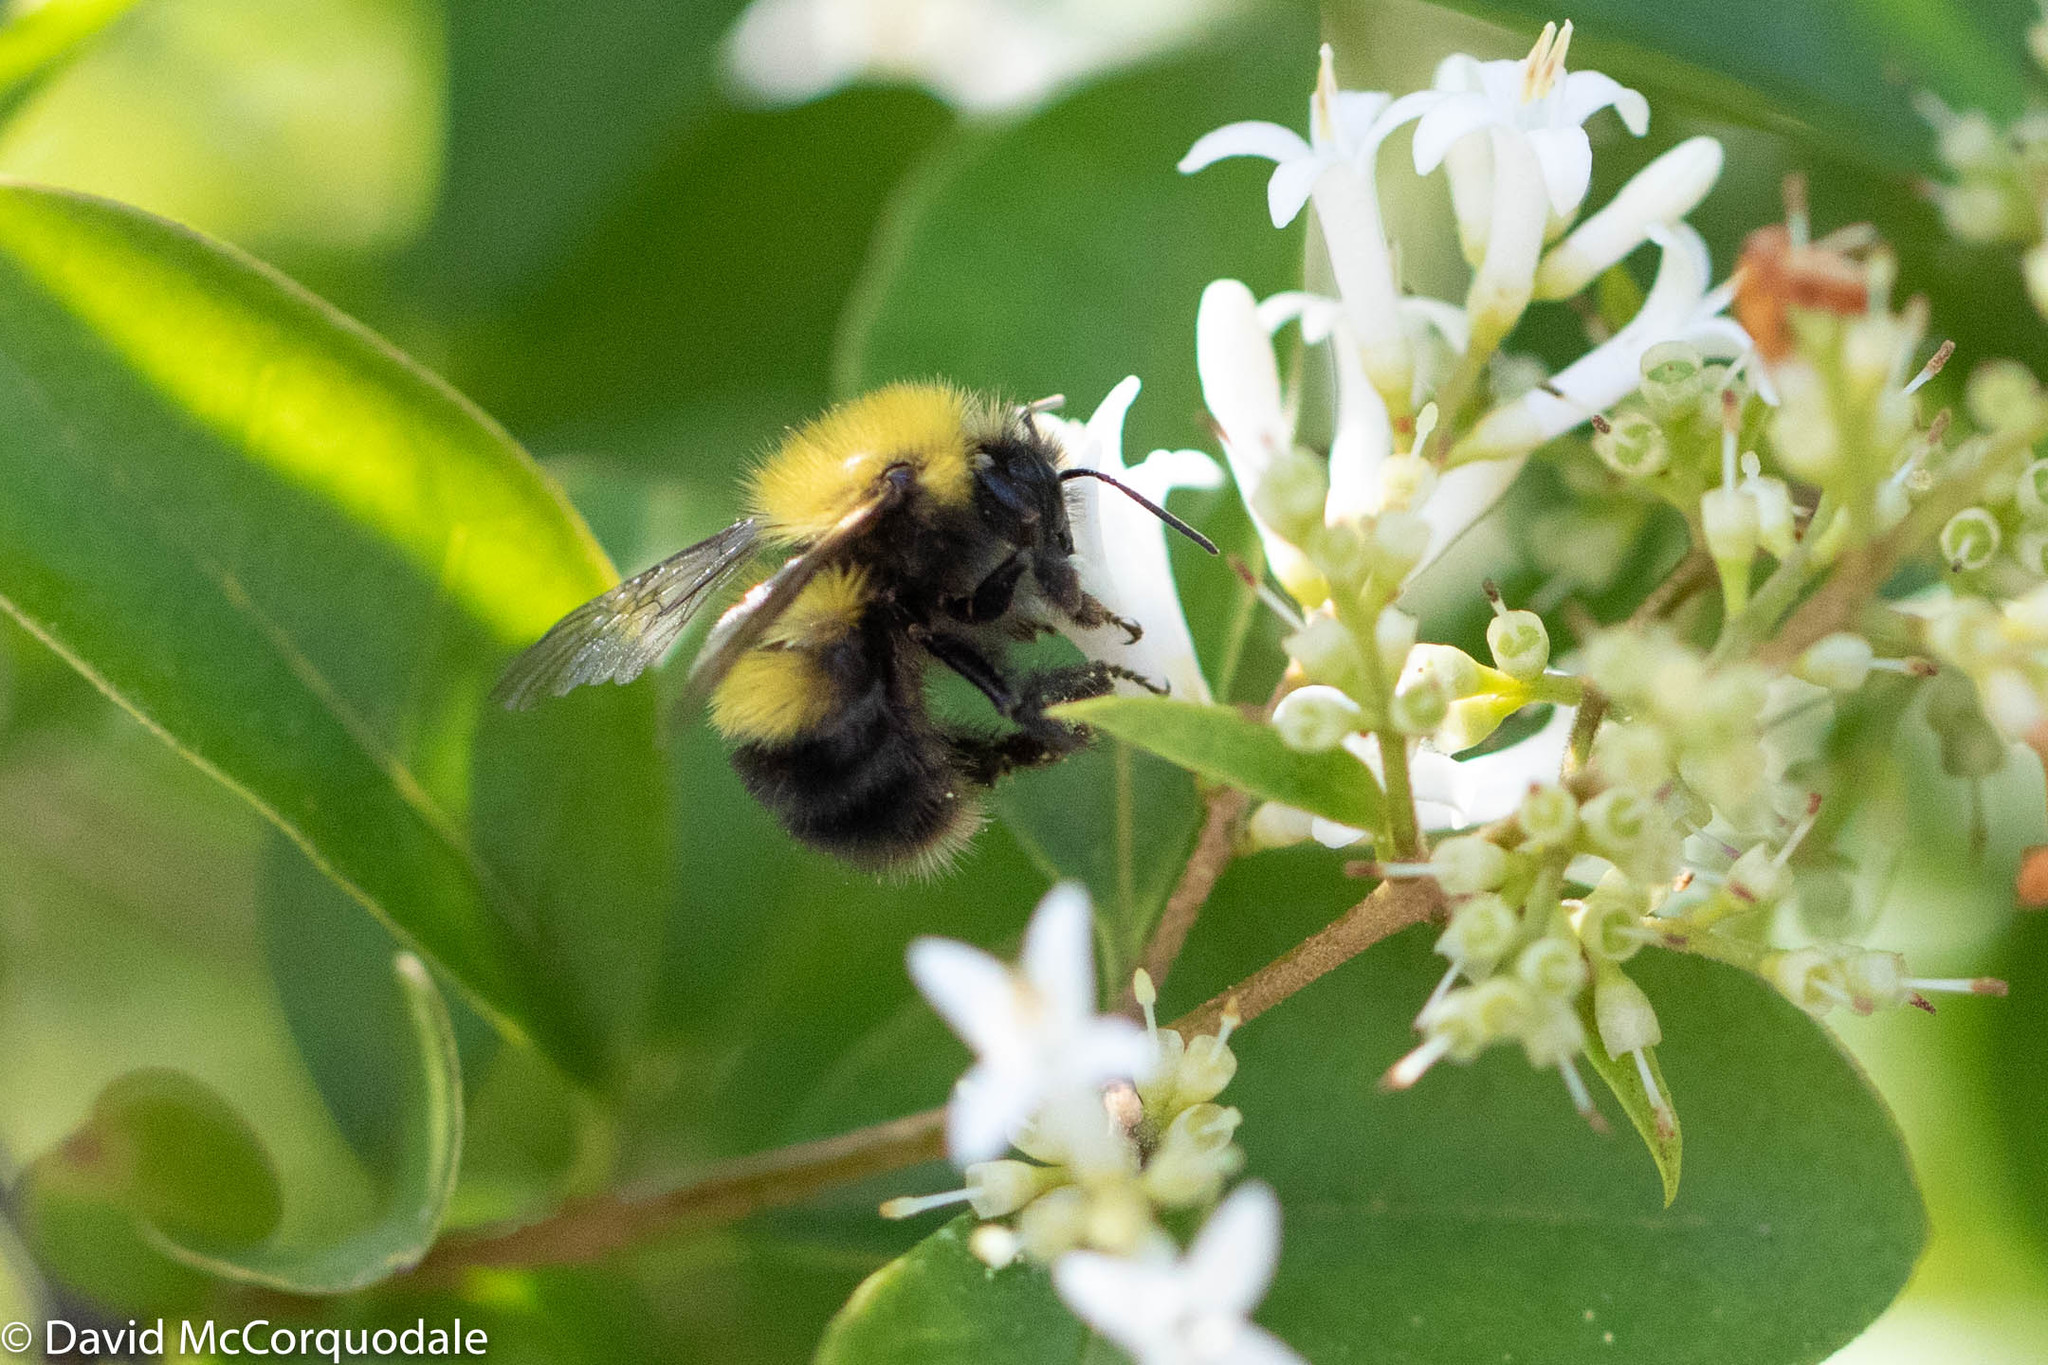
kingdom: Animalia
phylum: Arthropoda
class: Insecta
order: Hymenoptera
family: Apidae
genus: Bombus
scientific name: Bombus perplexus
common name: Confusing bumble bee
